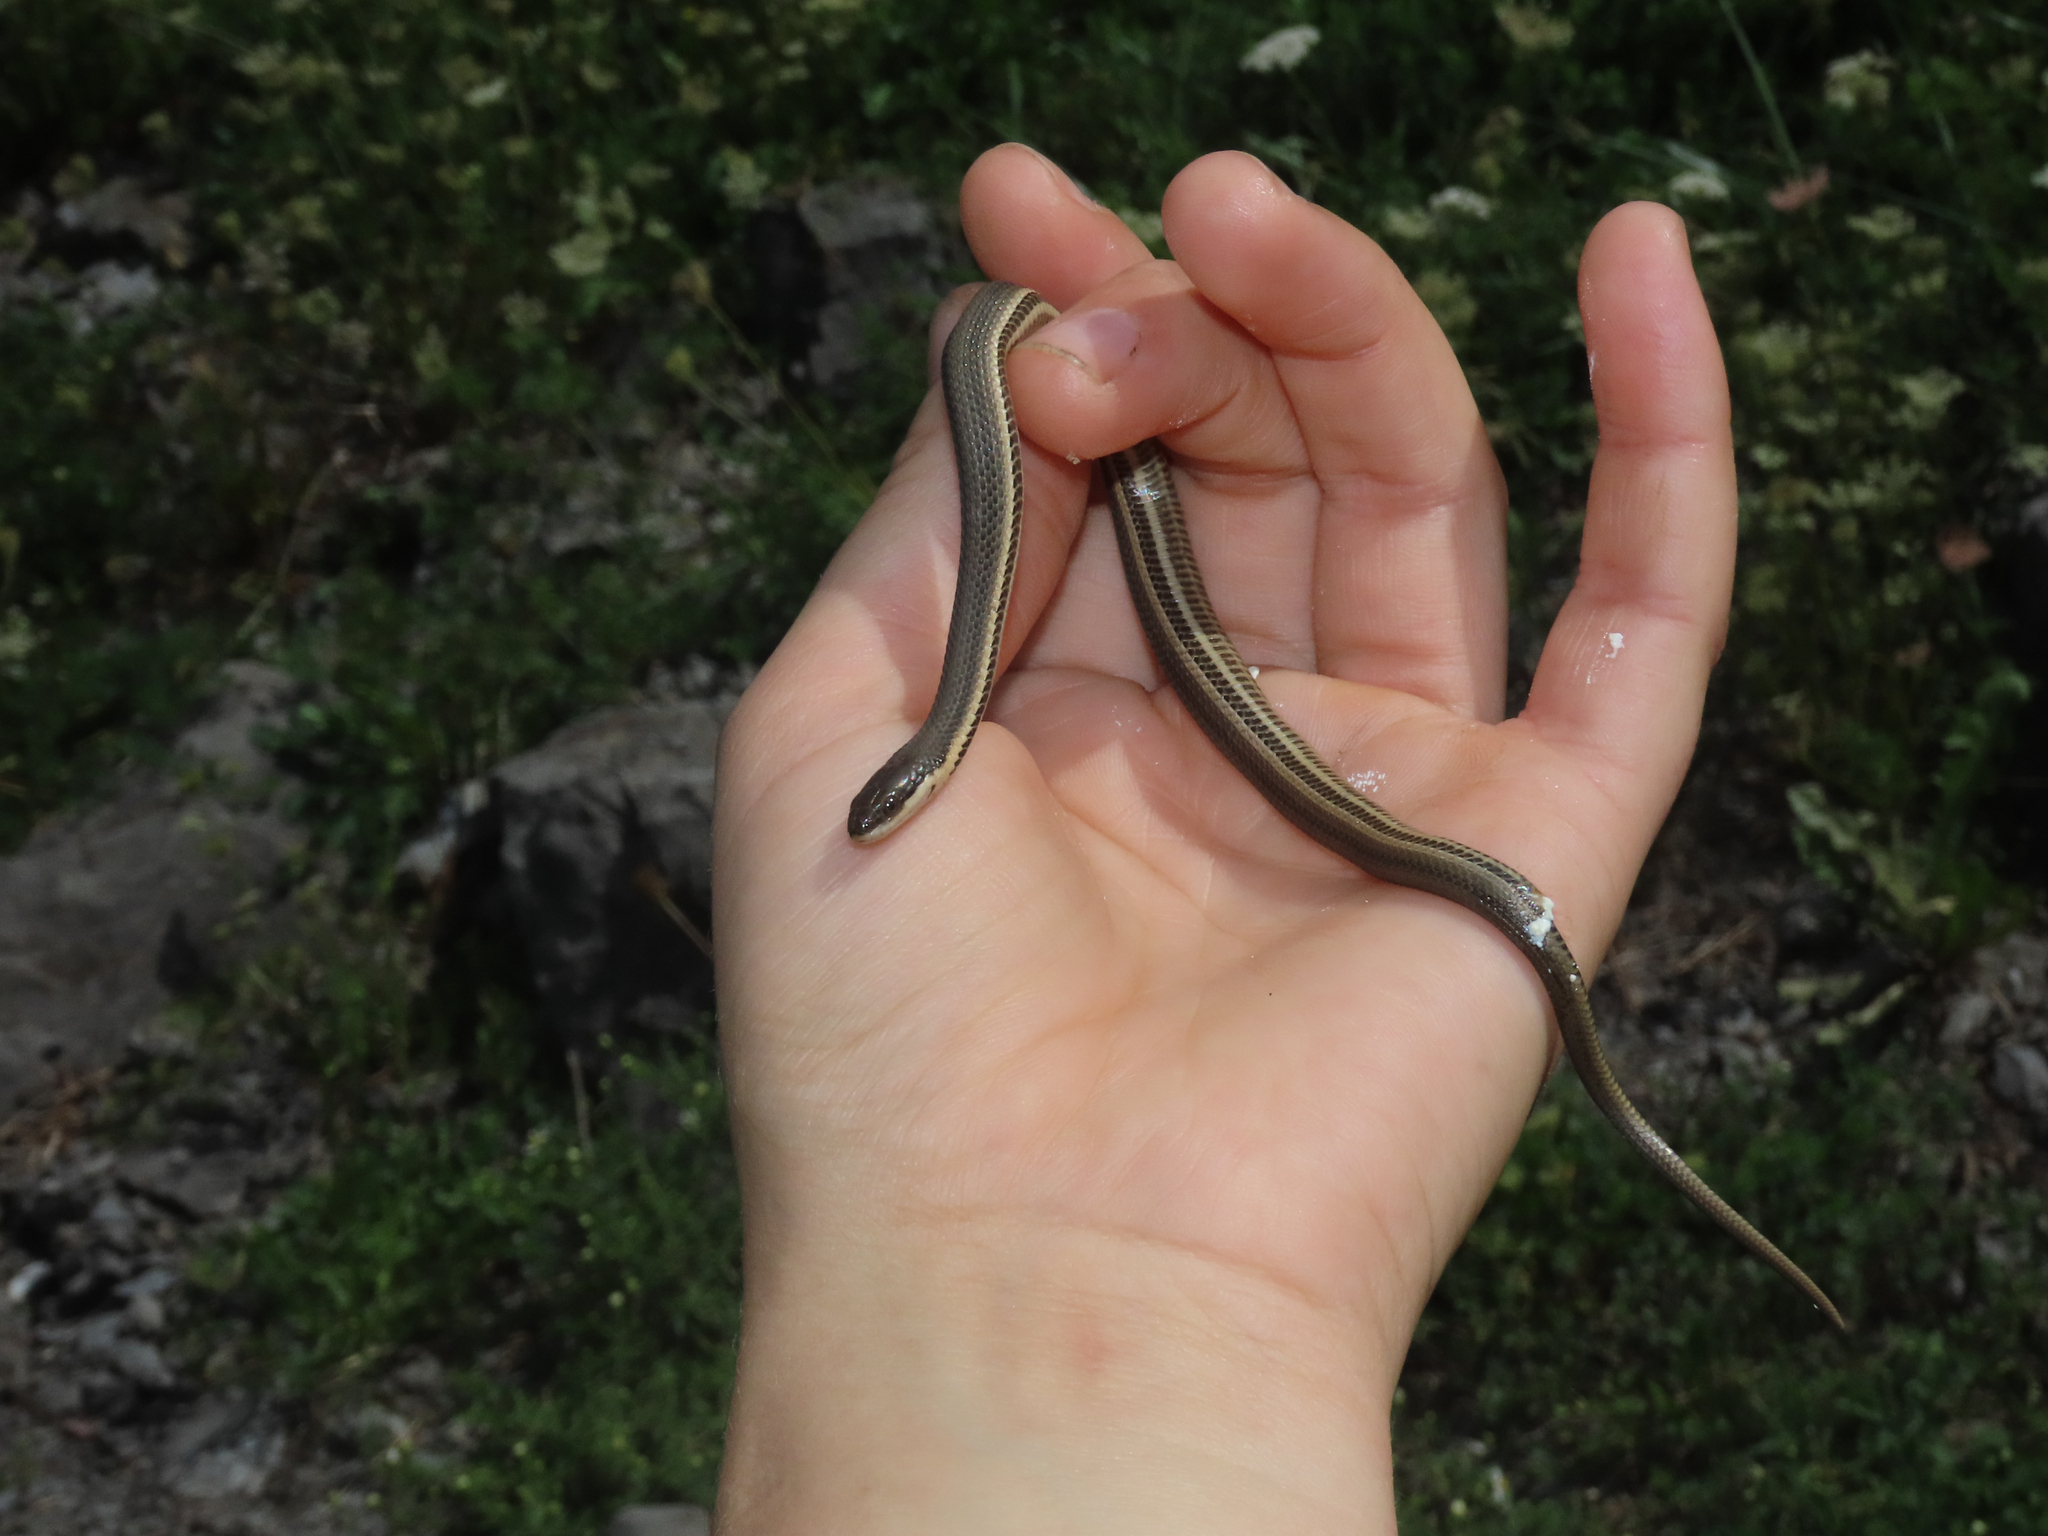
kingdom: Animalia
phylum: Chordata
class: Squamata
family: Colubridae
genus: Regina
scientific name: Regina septemvittata
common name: Queen snake
